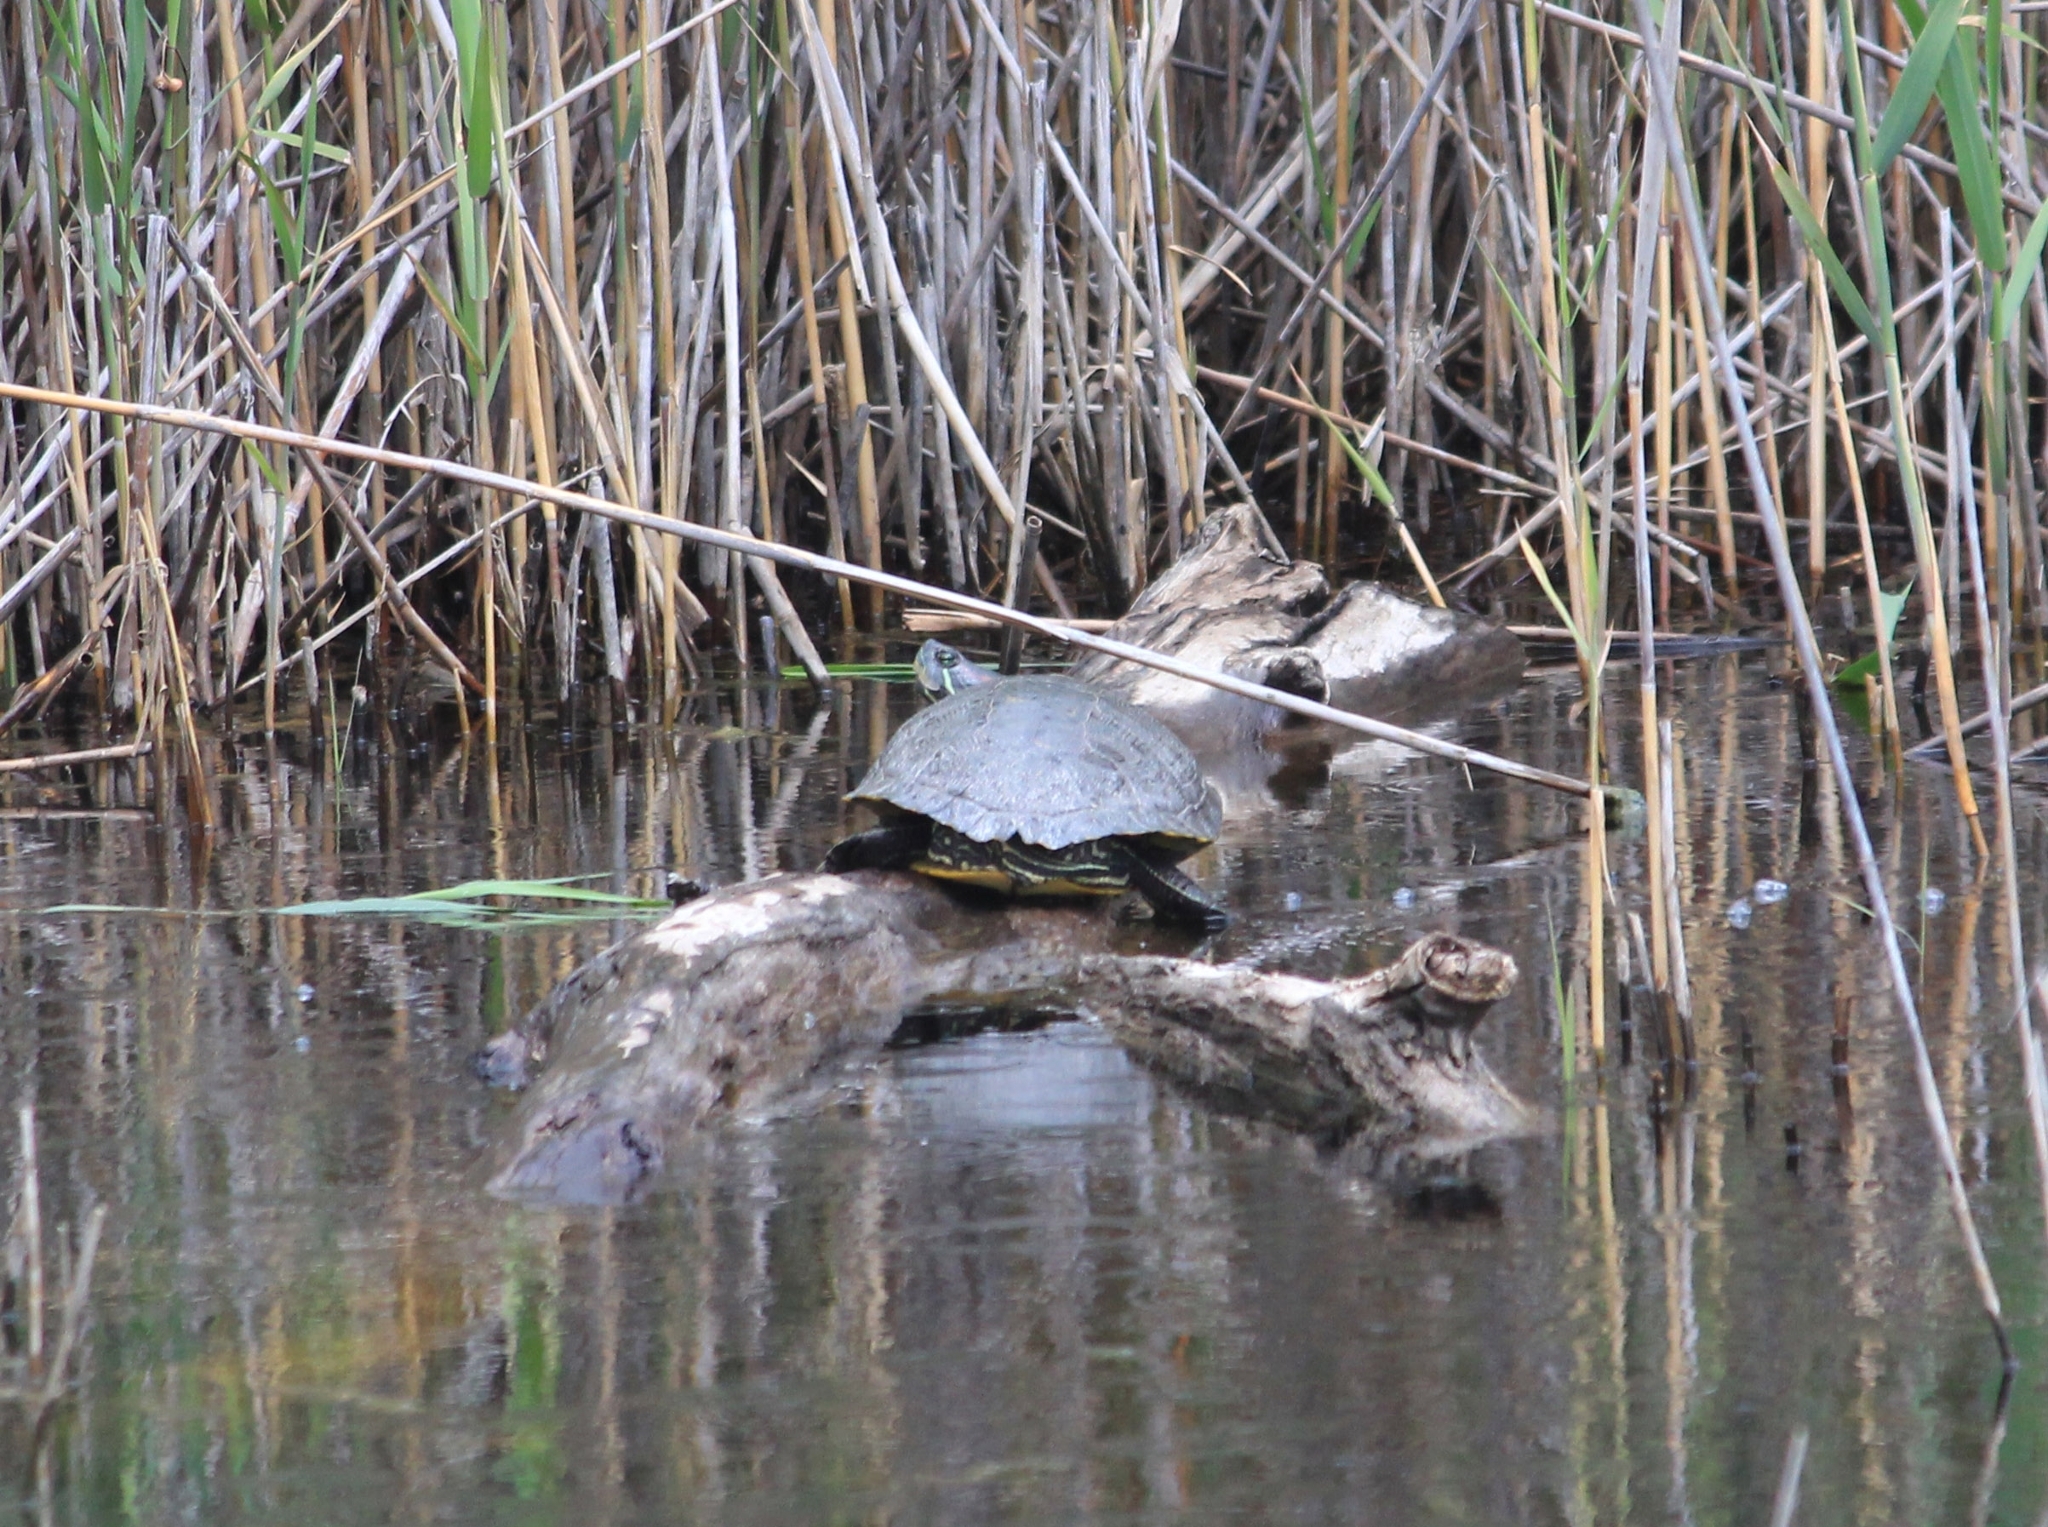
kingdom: Animalia
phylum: Chordata
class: Testudines
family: Emydidae
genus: Trachemys
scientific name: Trachemys scripta
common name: Slider
